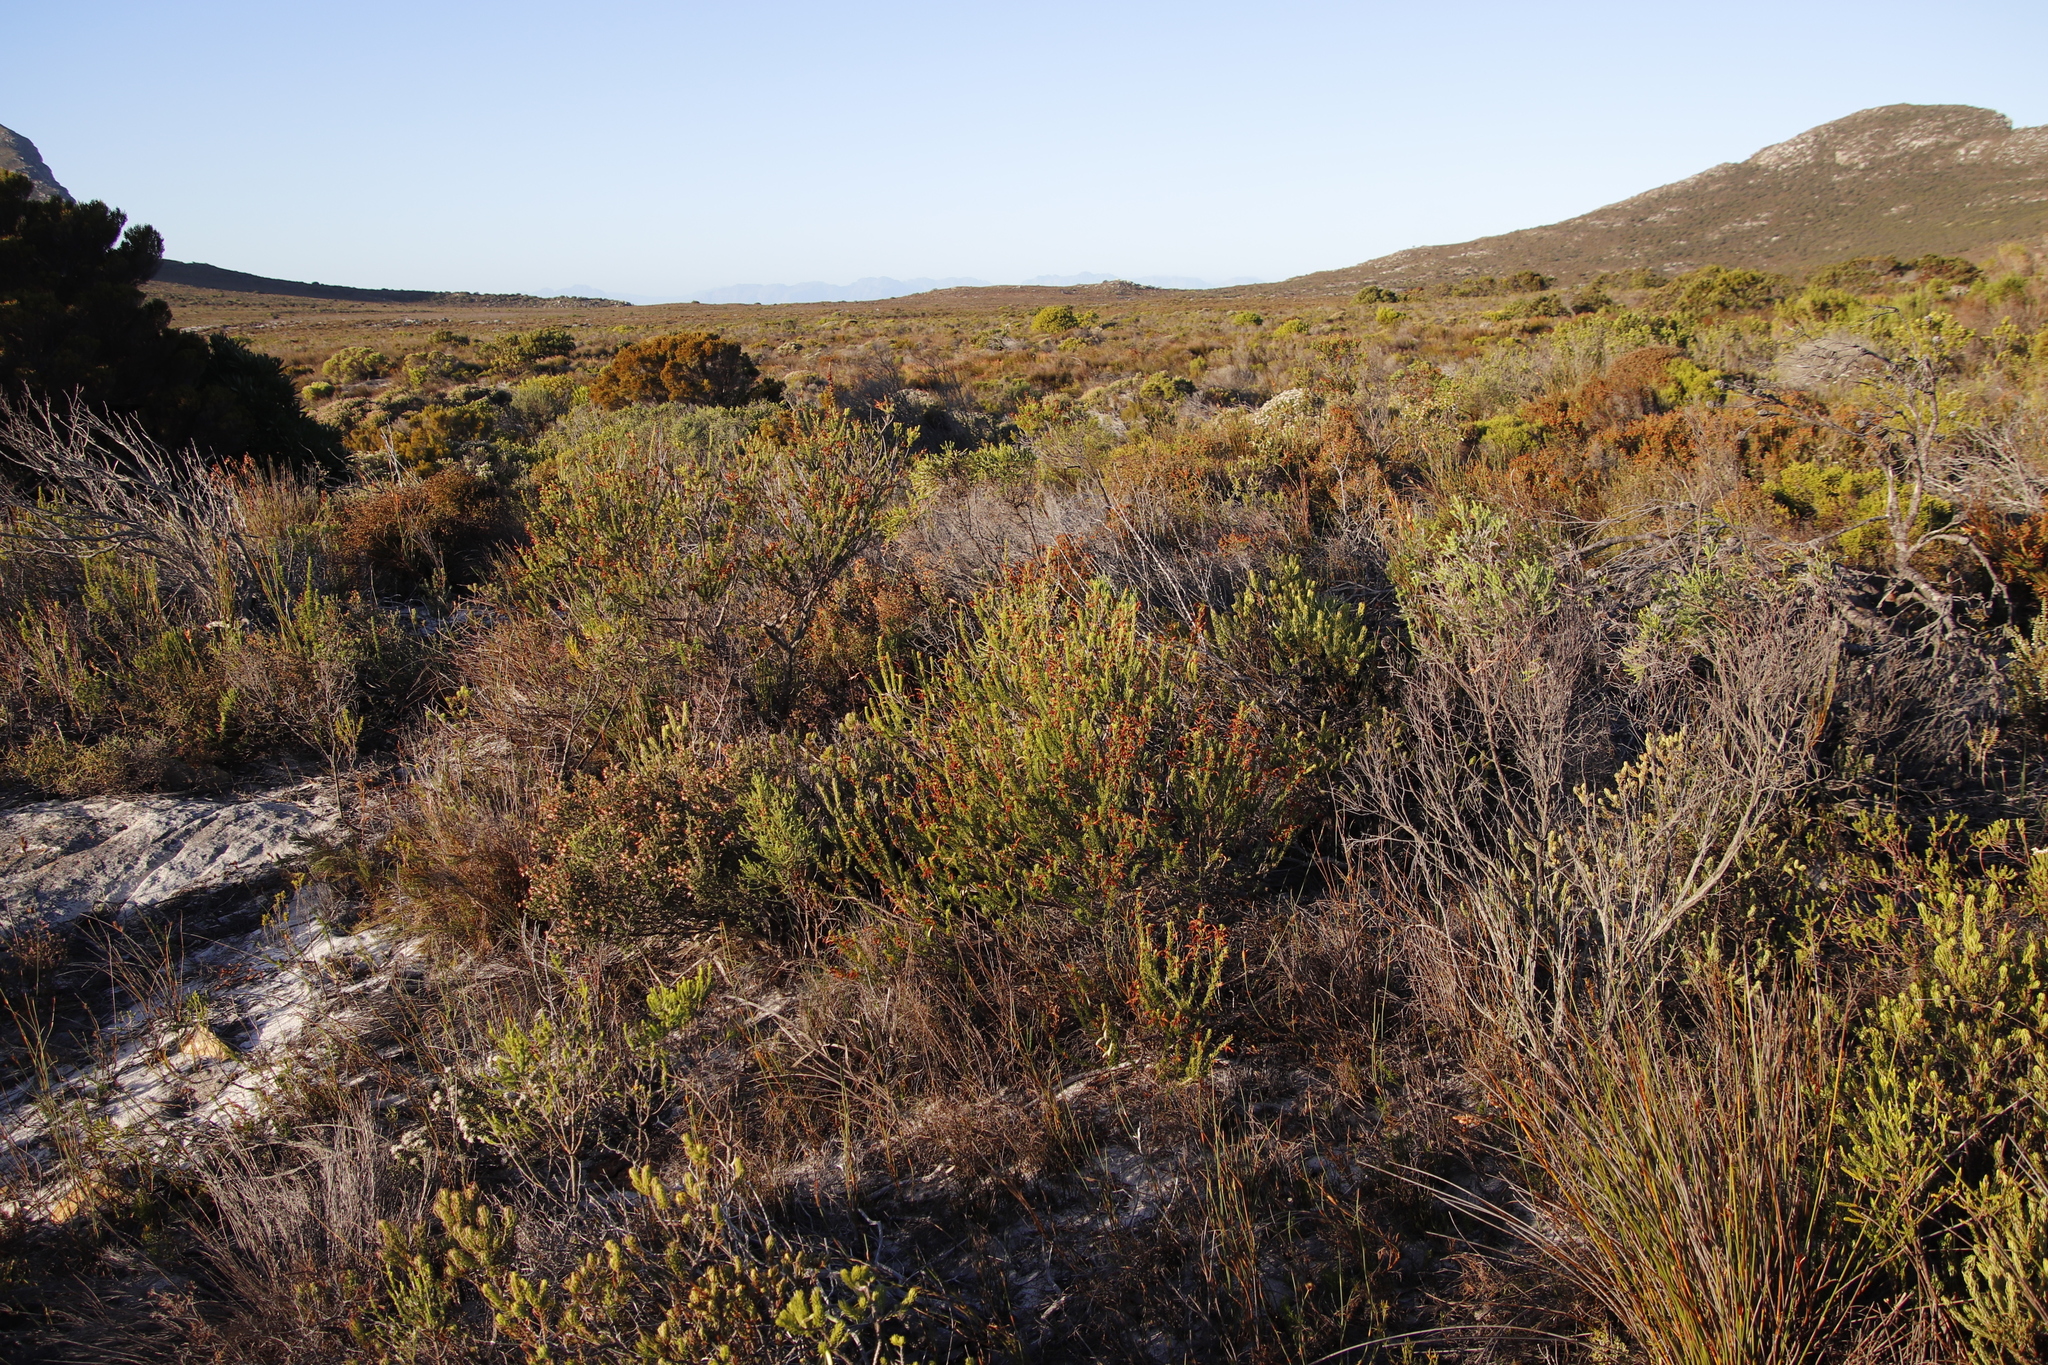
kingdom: Plantae
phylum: Tracheophyta
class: Magnoliopsida
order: Ericales
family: Ericaceae
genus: Erica
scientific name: Erica mammosa
